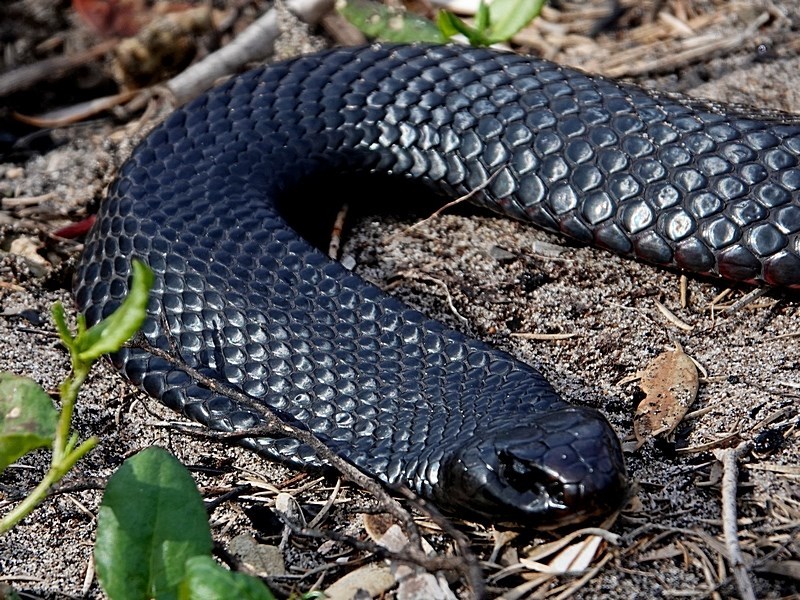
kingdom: Animalia
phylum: Chordata
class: Squamata
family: Elapidae
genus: Pseudechis
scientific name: Pseudechis porphyriacus
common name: Australian black snake
